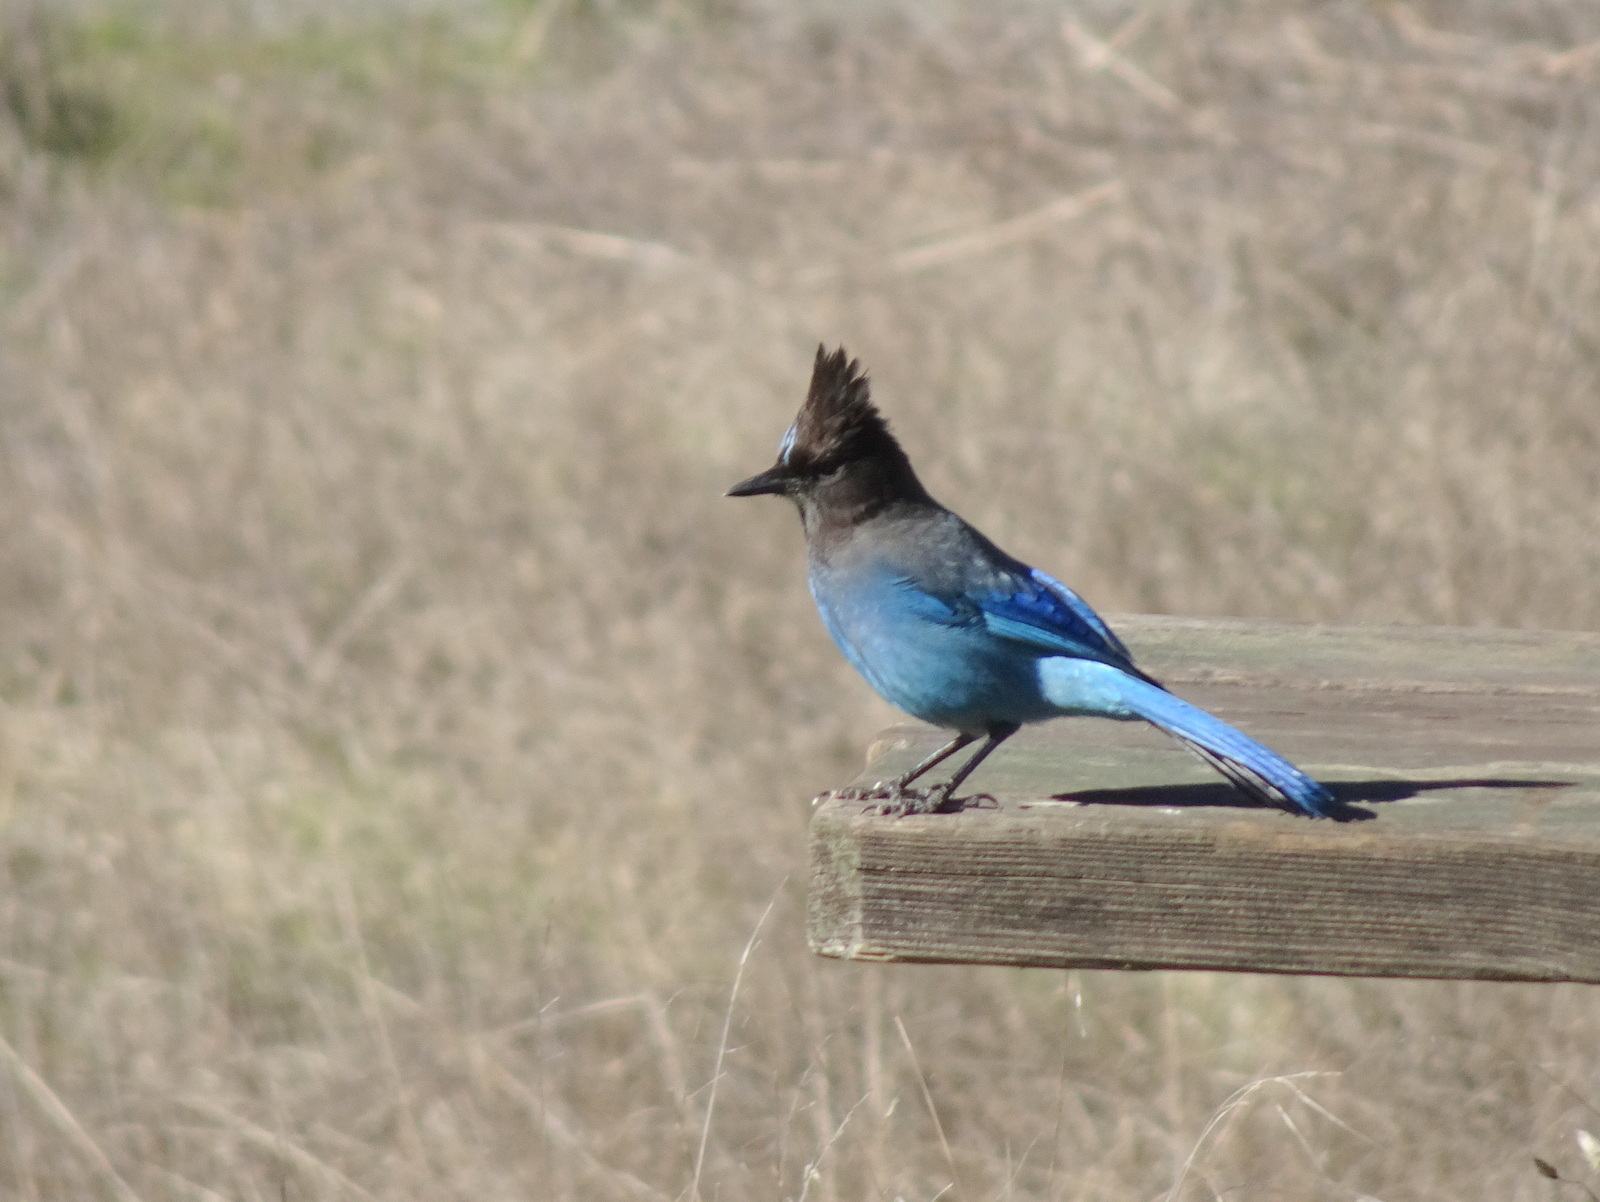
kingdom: Animalia
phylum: Chordata
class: Aves
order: Passeriformes
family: Corvidae
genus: Cyanocitta
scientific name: Cyanocitta stelleri
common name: Steller's jay
